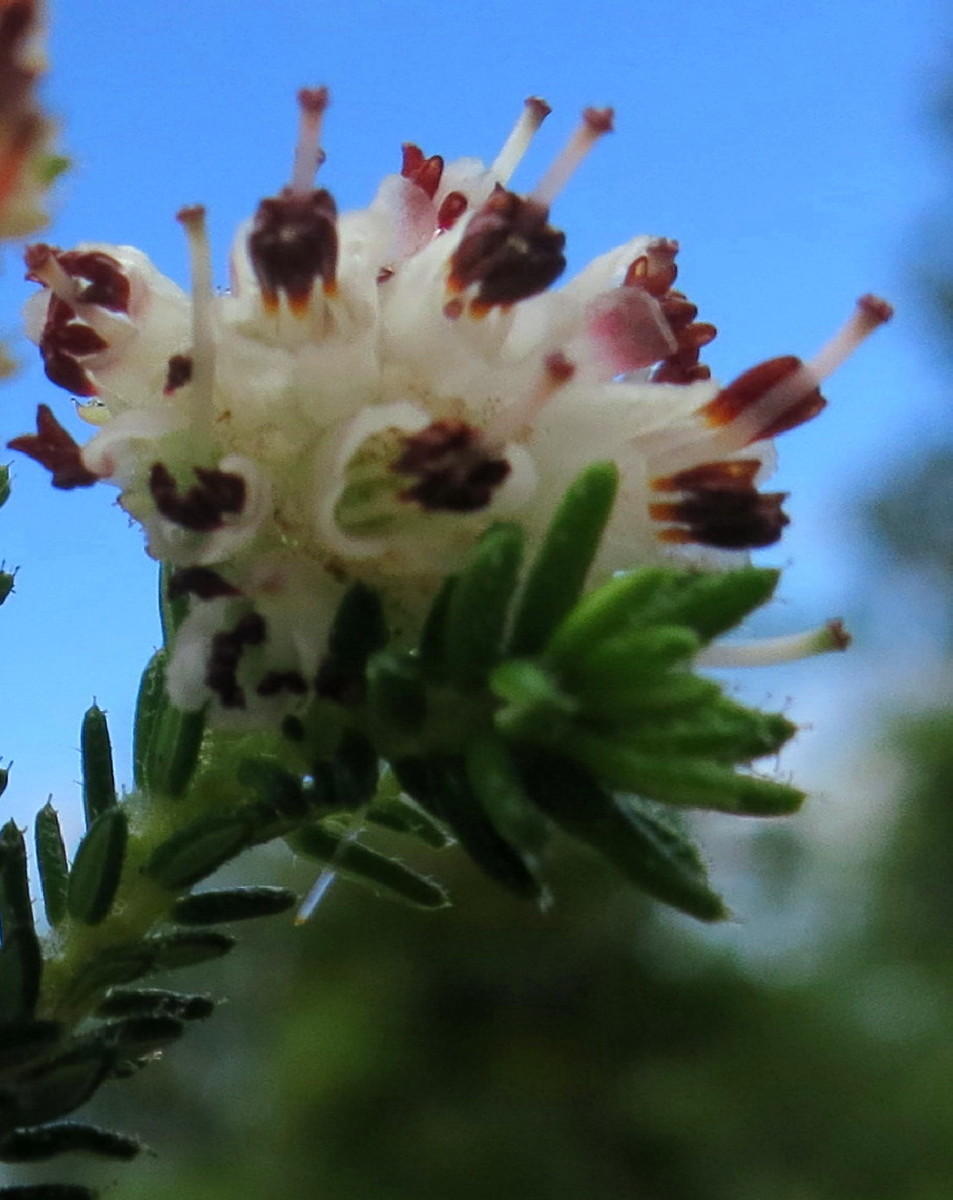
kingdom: Plantae
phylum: Tracheophyta
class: Magnoliopsida
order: Ericales
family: Ericaceae
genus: Erica
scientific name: Erica stylaris
